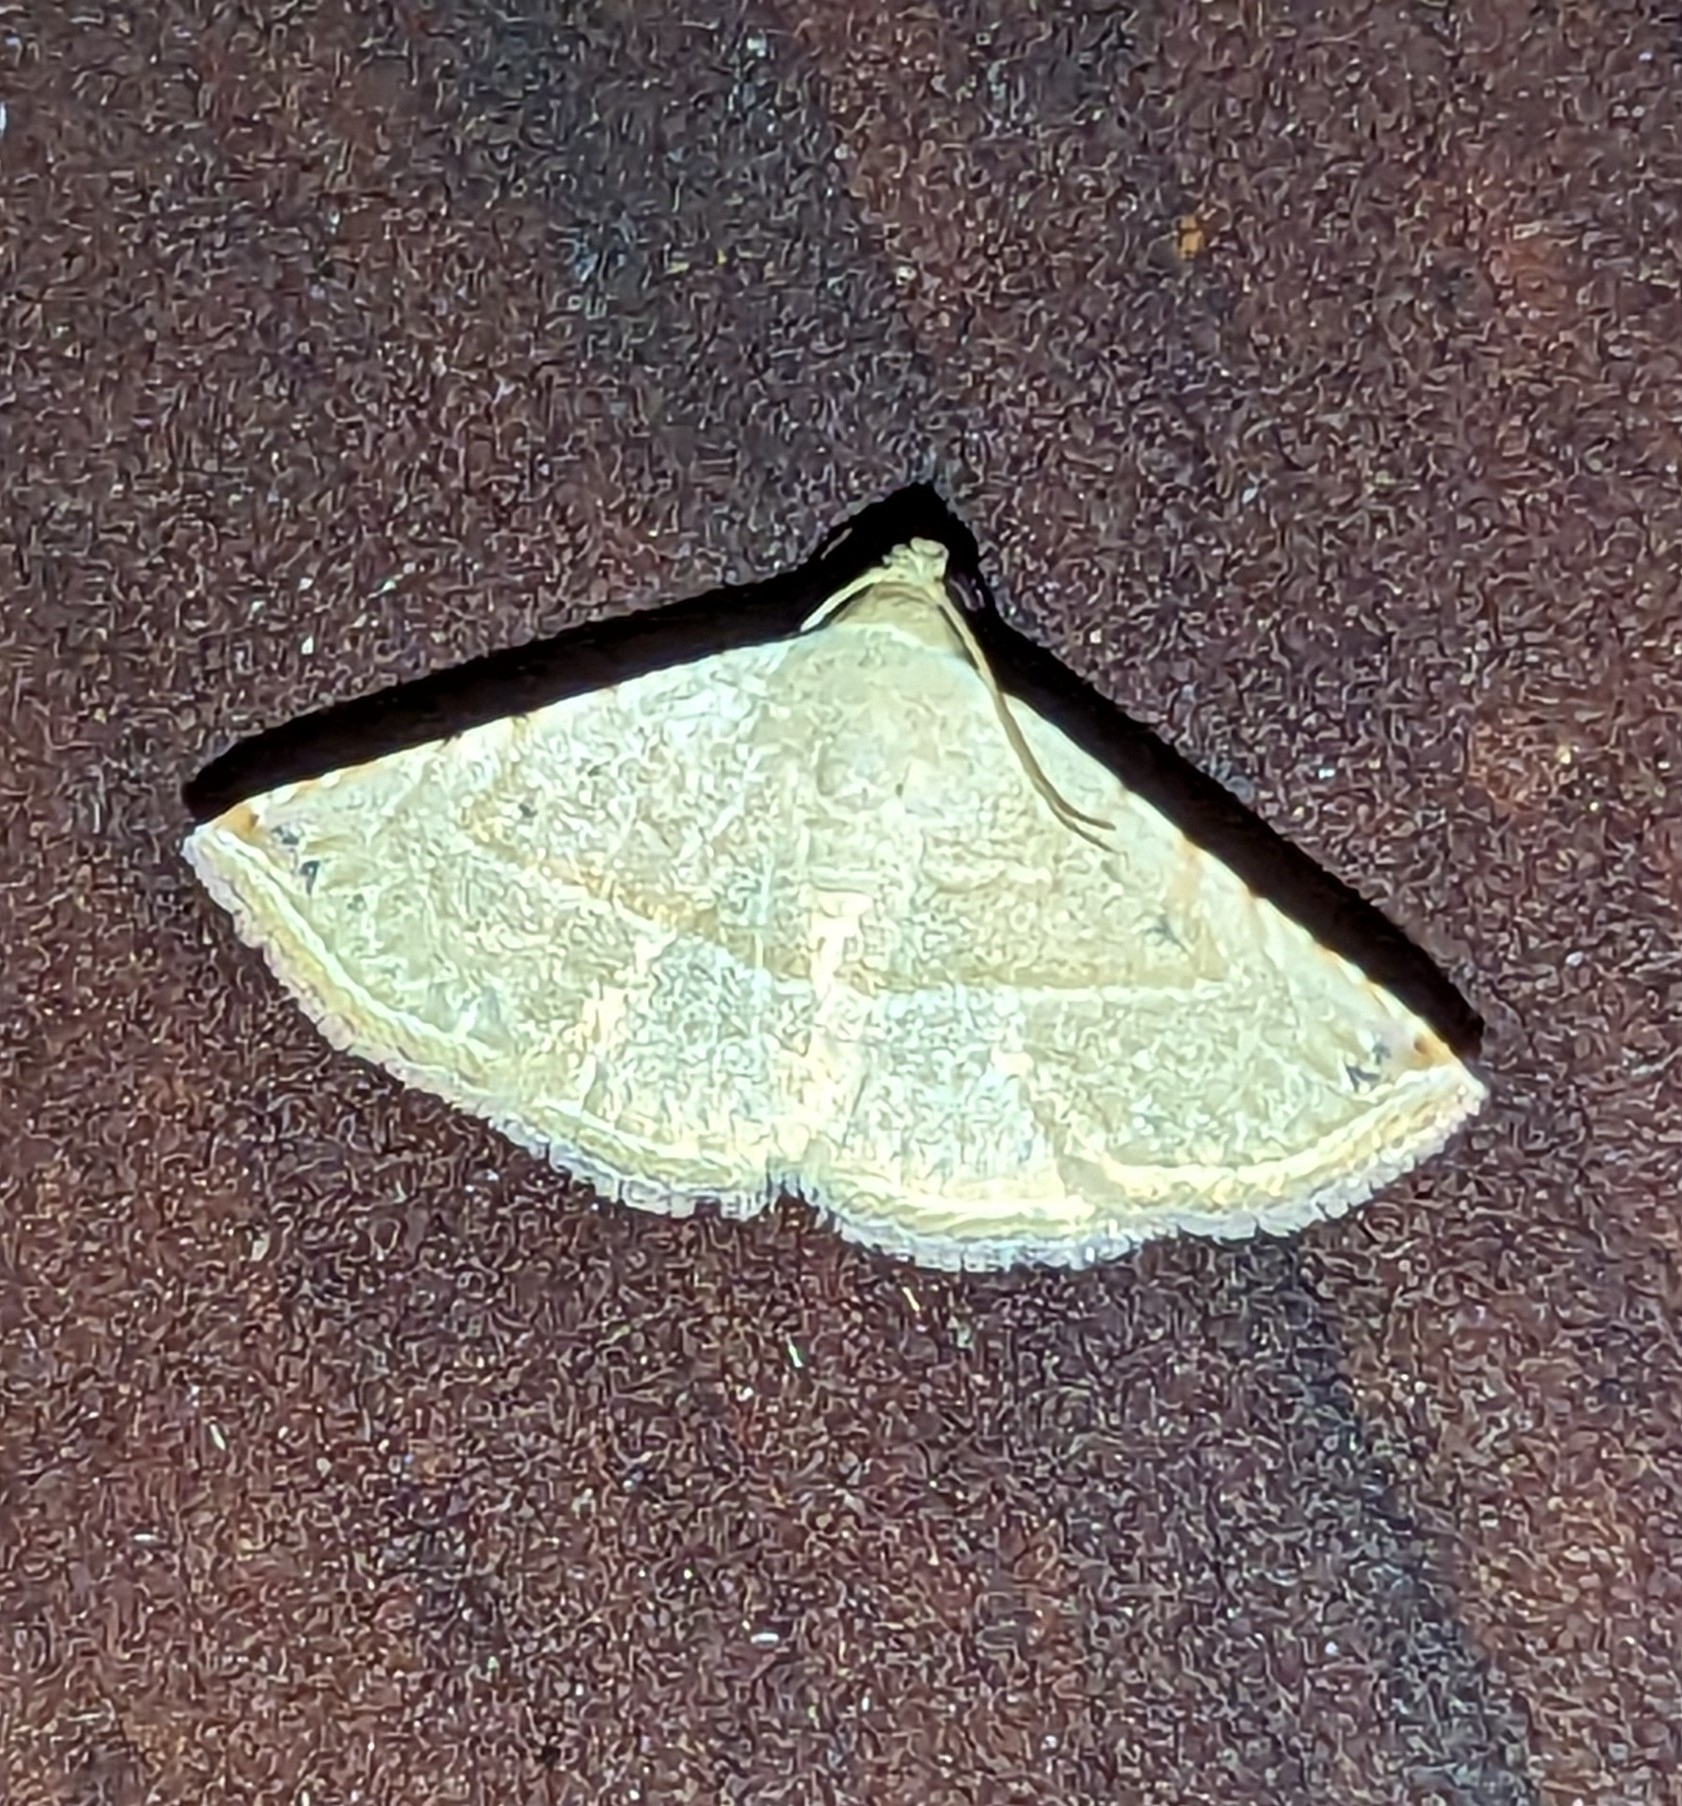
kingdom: Animalia
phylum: Arthropoda
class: Insecta
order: Lepidoptera
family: Noctuidae
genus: Autoba
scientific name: Autoba gayneri
